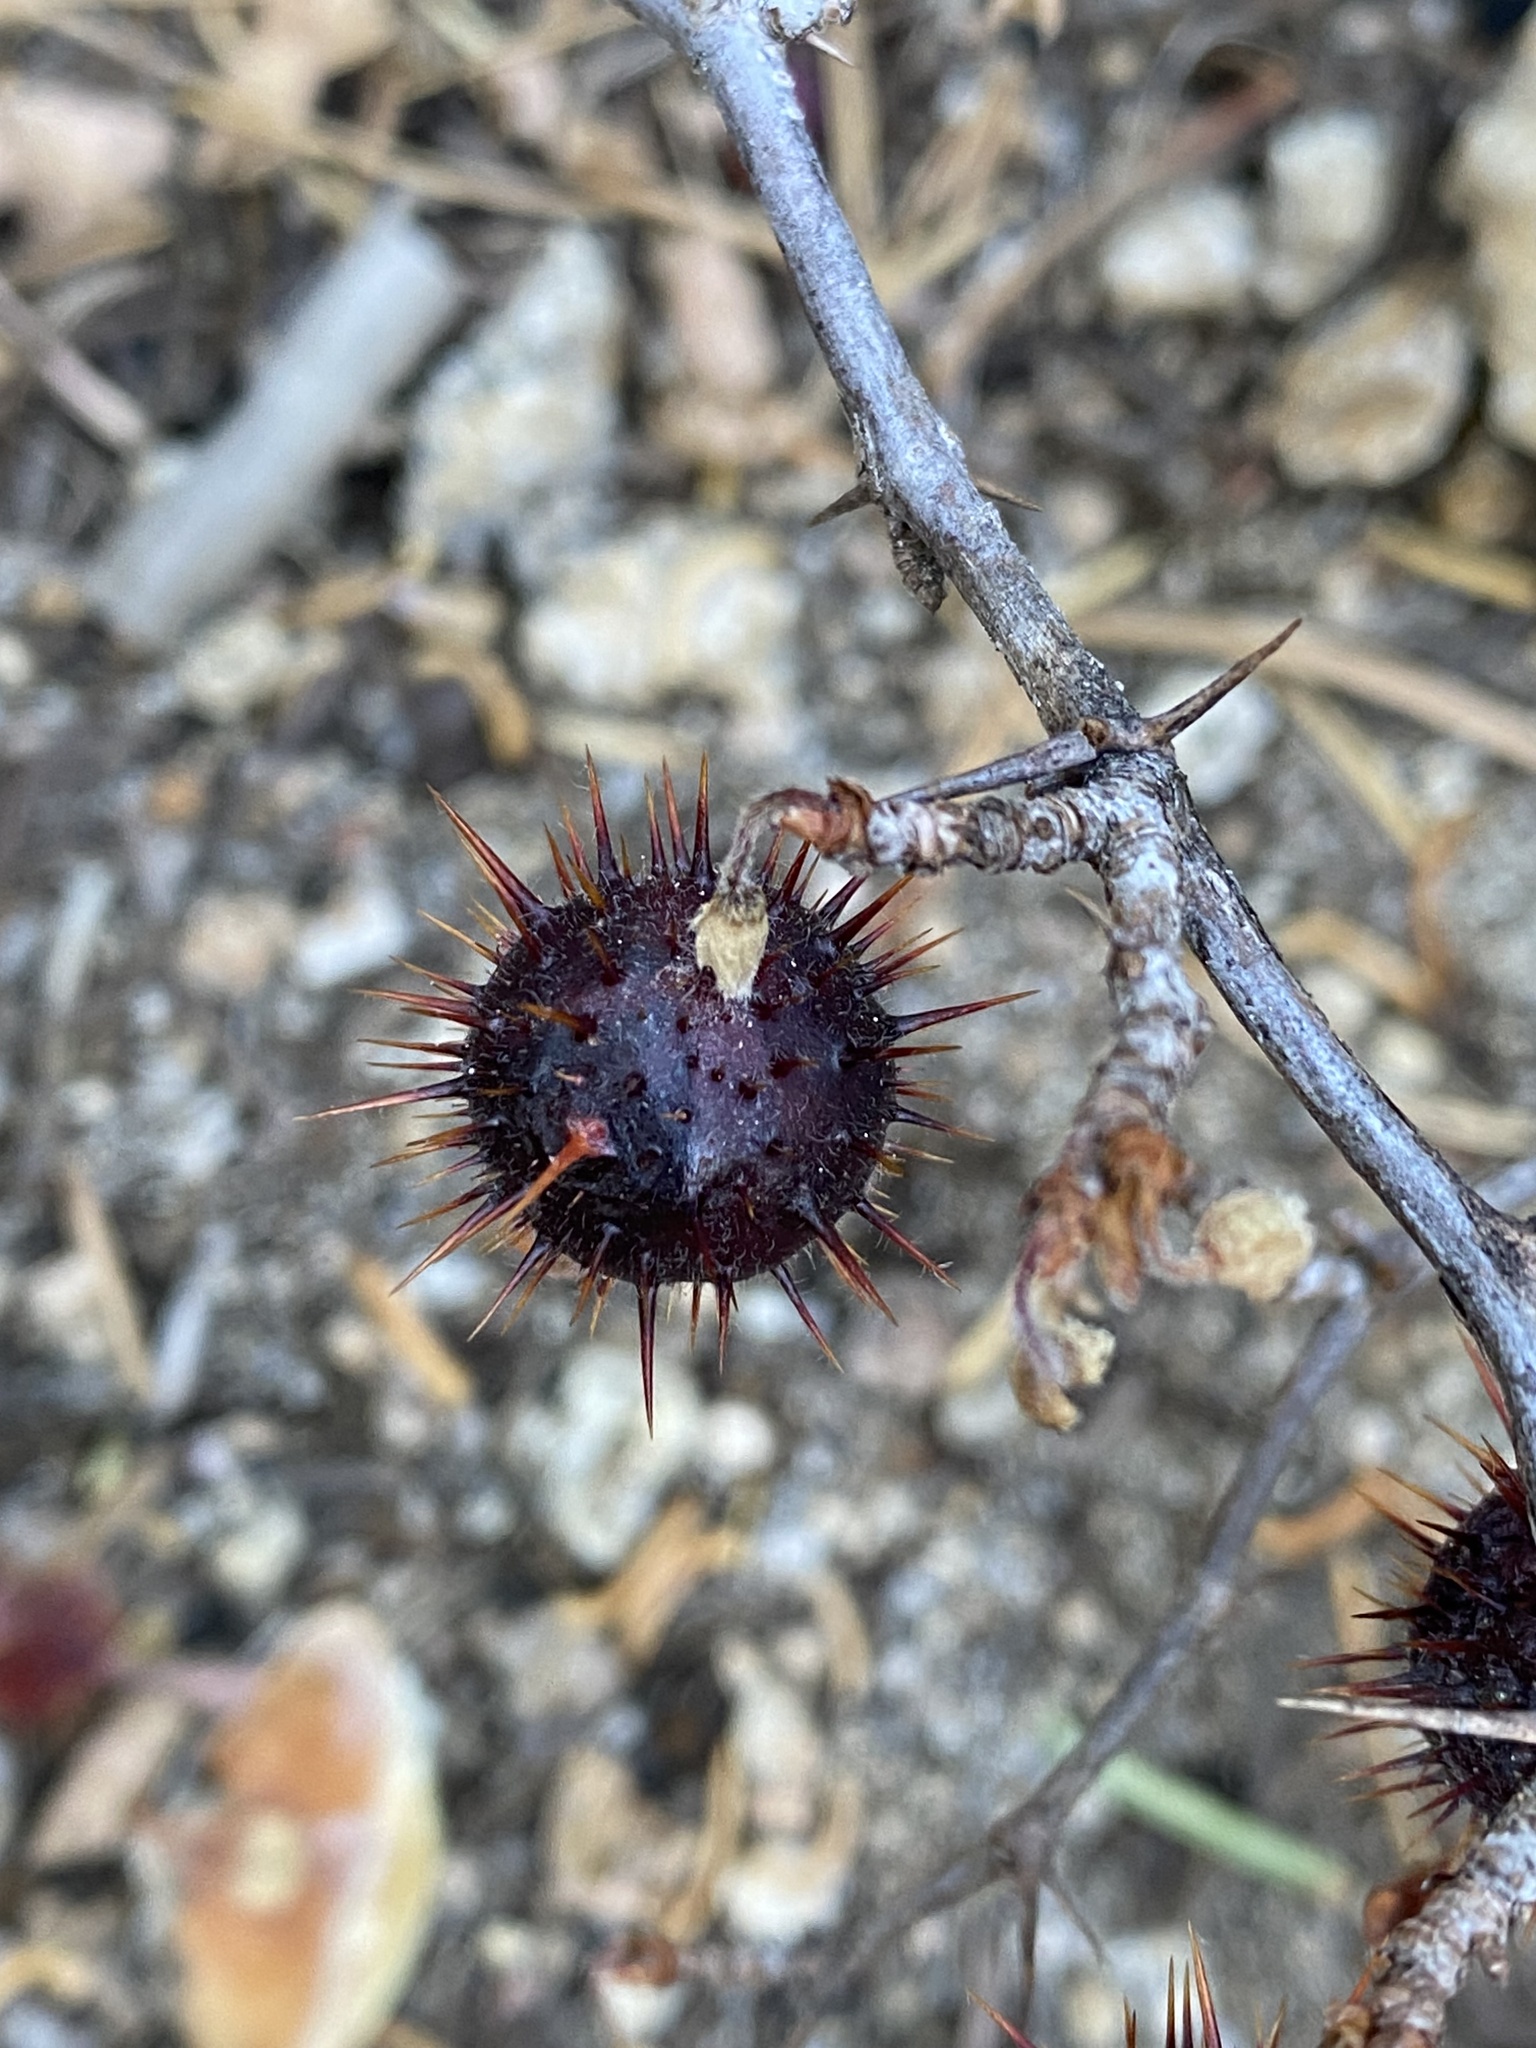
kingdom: Plantae
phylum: Tracheophyta
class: Magnoliopsida
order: Saxifragales
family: Grossulariaceae
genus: Ribes
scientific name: Ribes roezlii
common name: Sierra gooseberry
